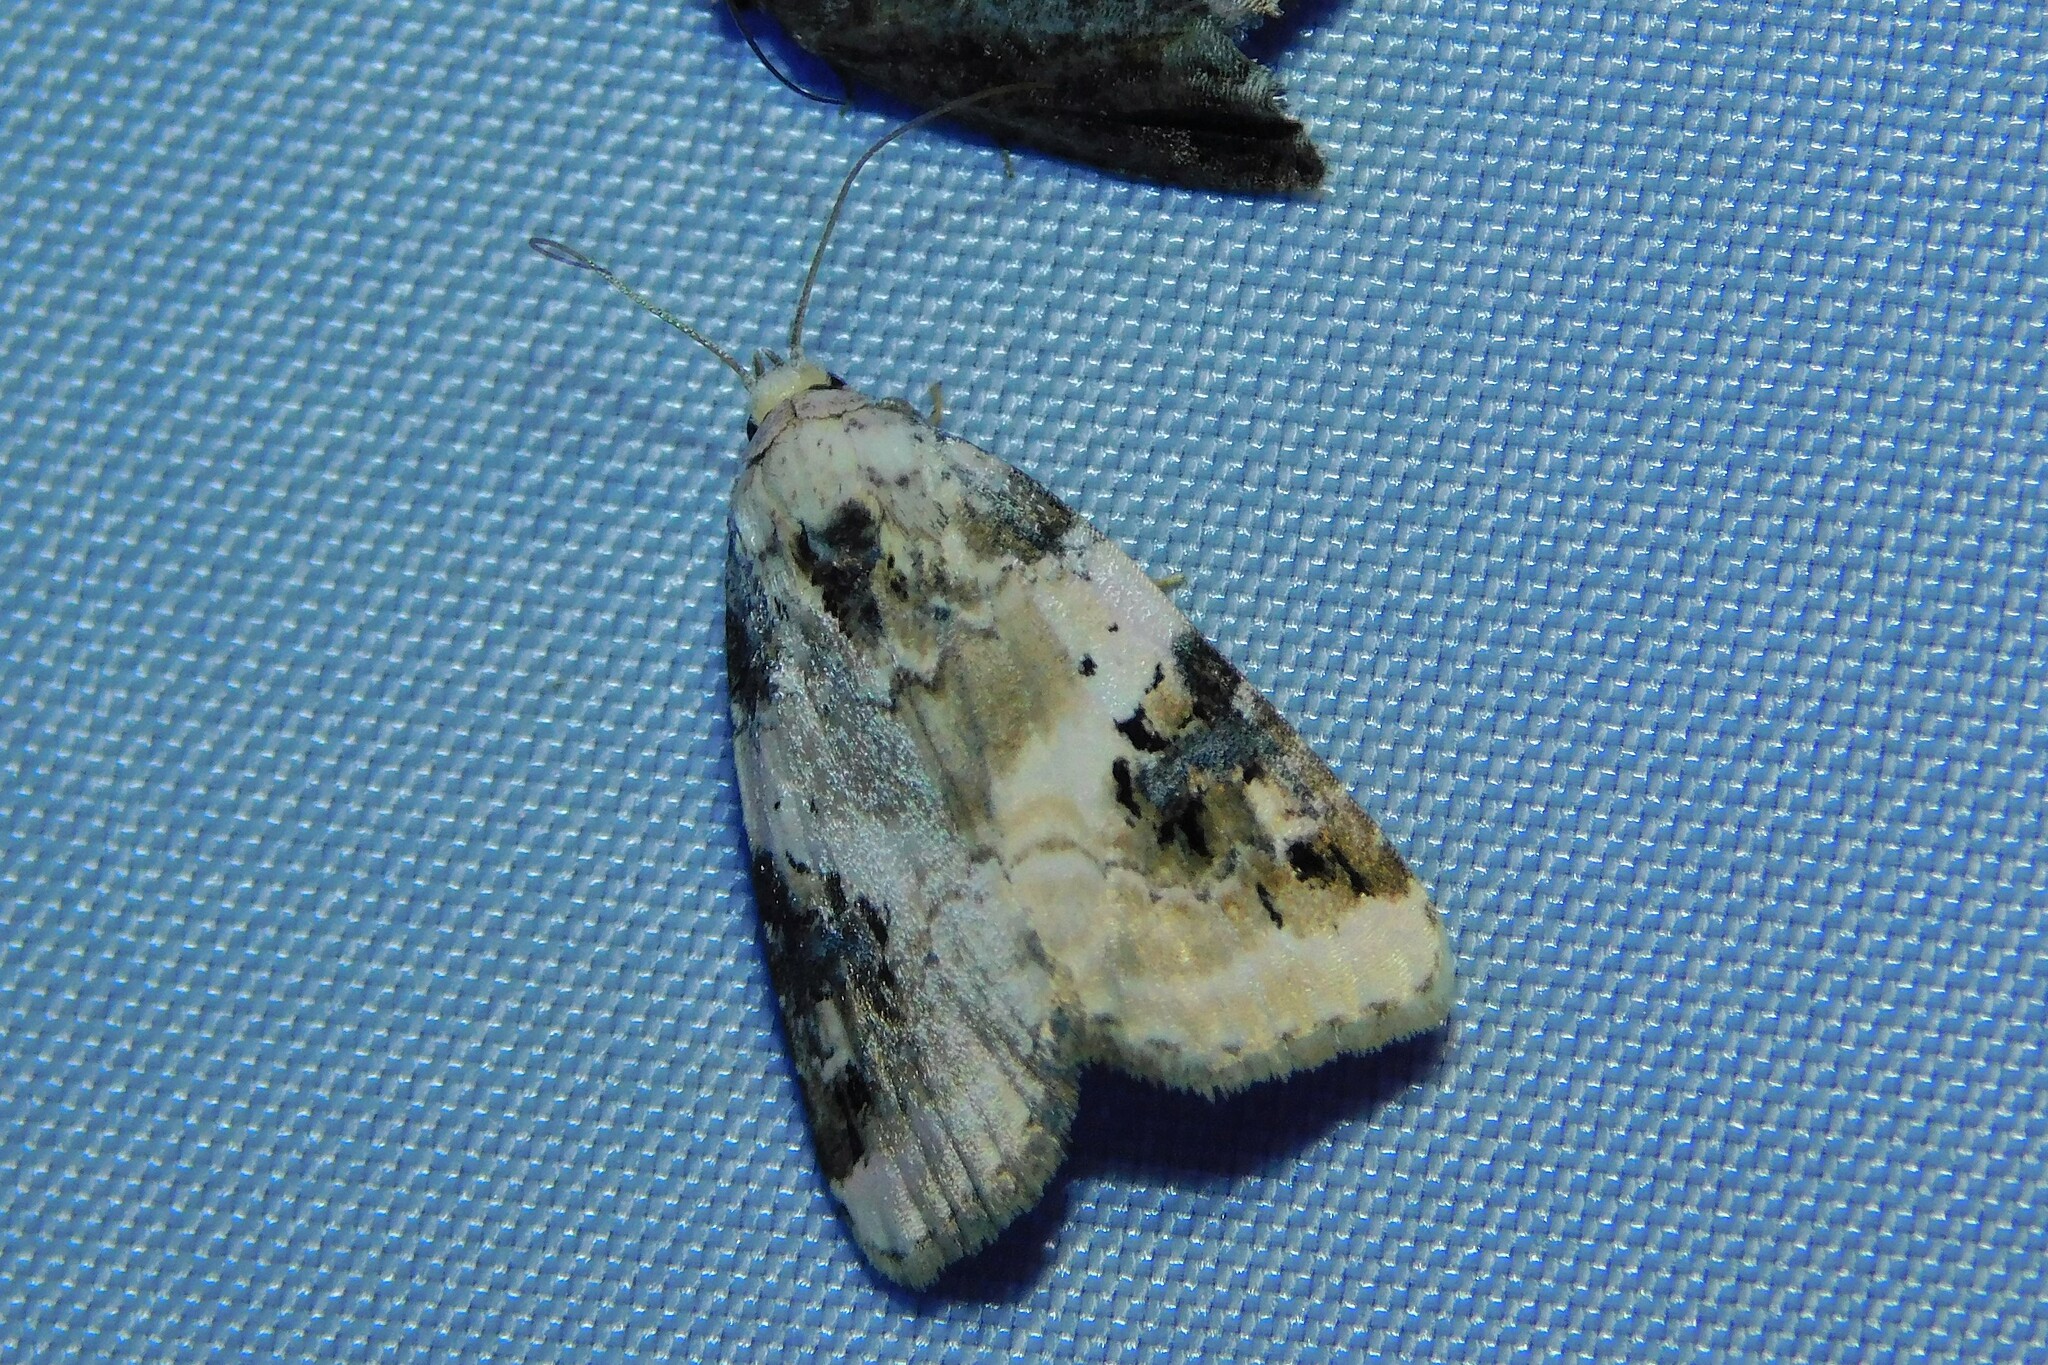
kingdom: Animalia
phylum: Arthropoda
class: Insecta
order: Lepidoptera
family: Noctuidae
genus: Pseudeustrotia
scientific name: Pseudeustrotia candidula
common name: Shining marbled
